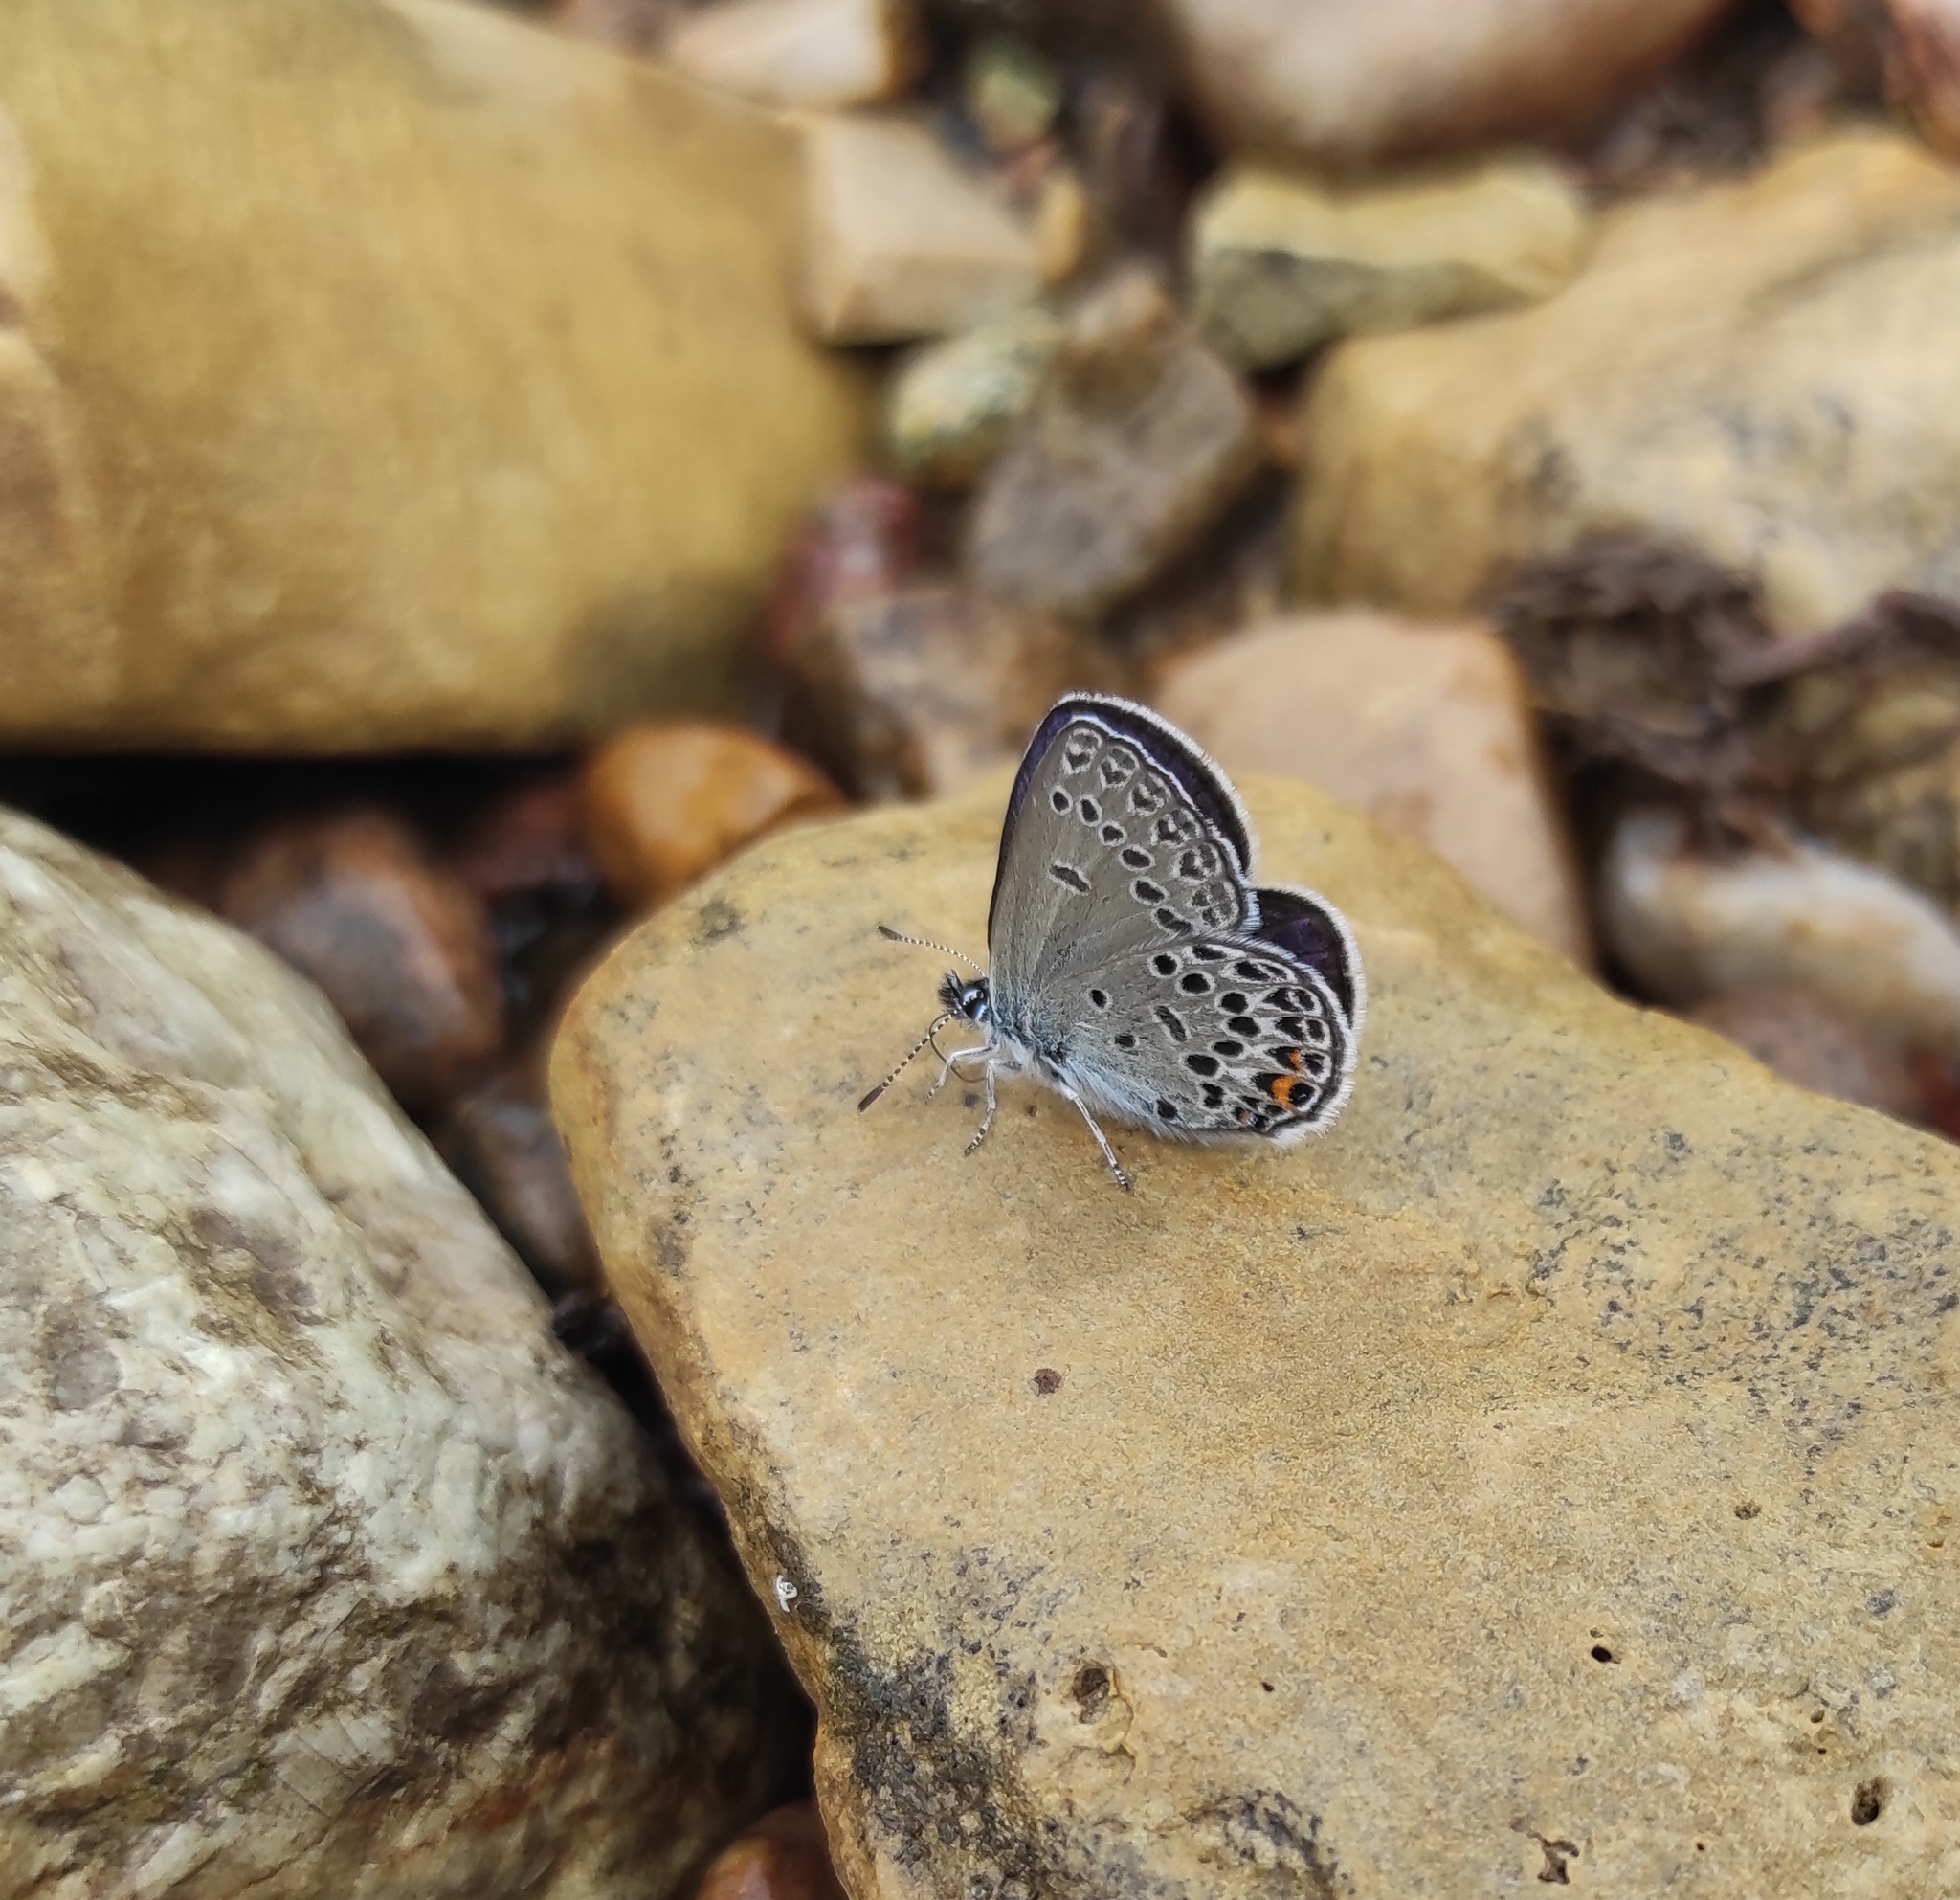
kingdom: Animalia
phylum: Arthropoda
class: Insecta
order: Lepidoptera
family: Lycaenidae
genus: Vacciniina
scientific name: Vacciniina optilete
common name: Cranberry blue
